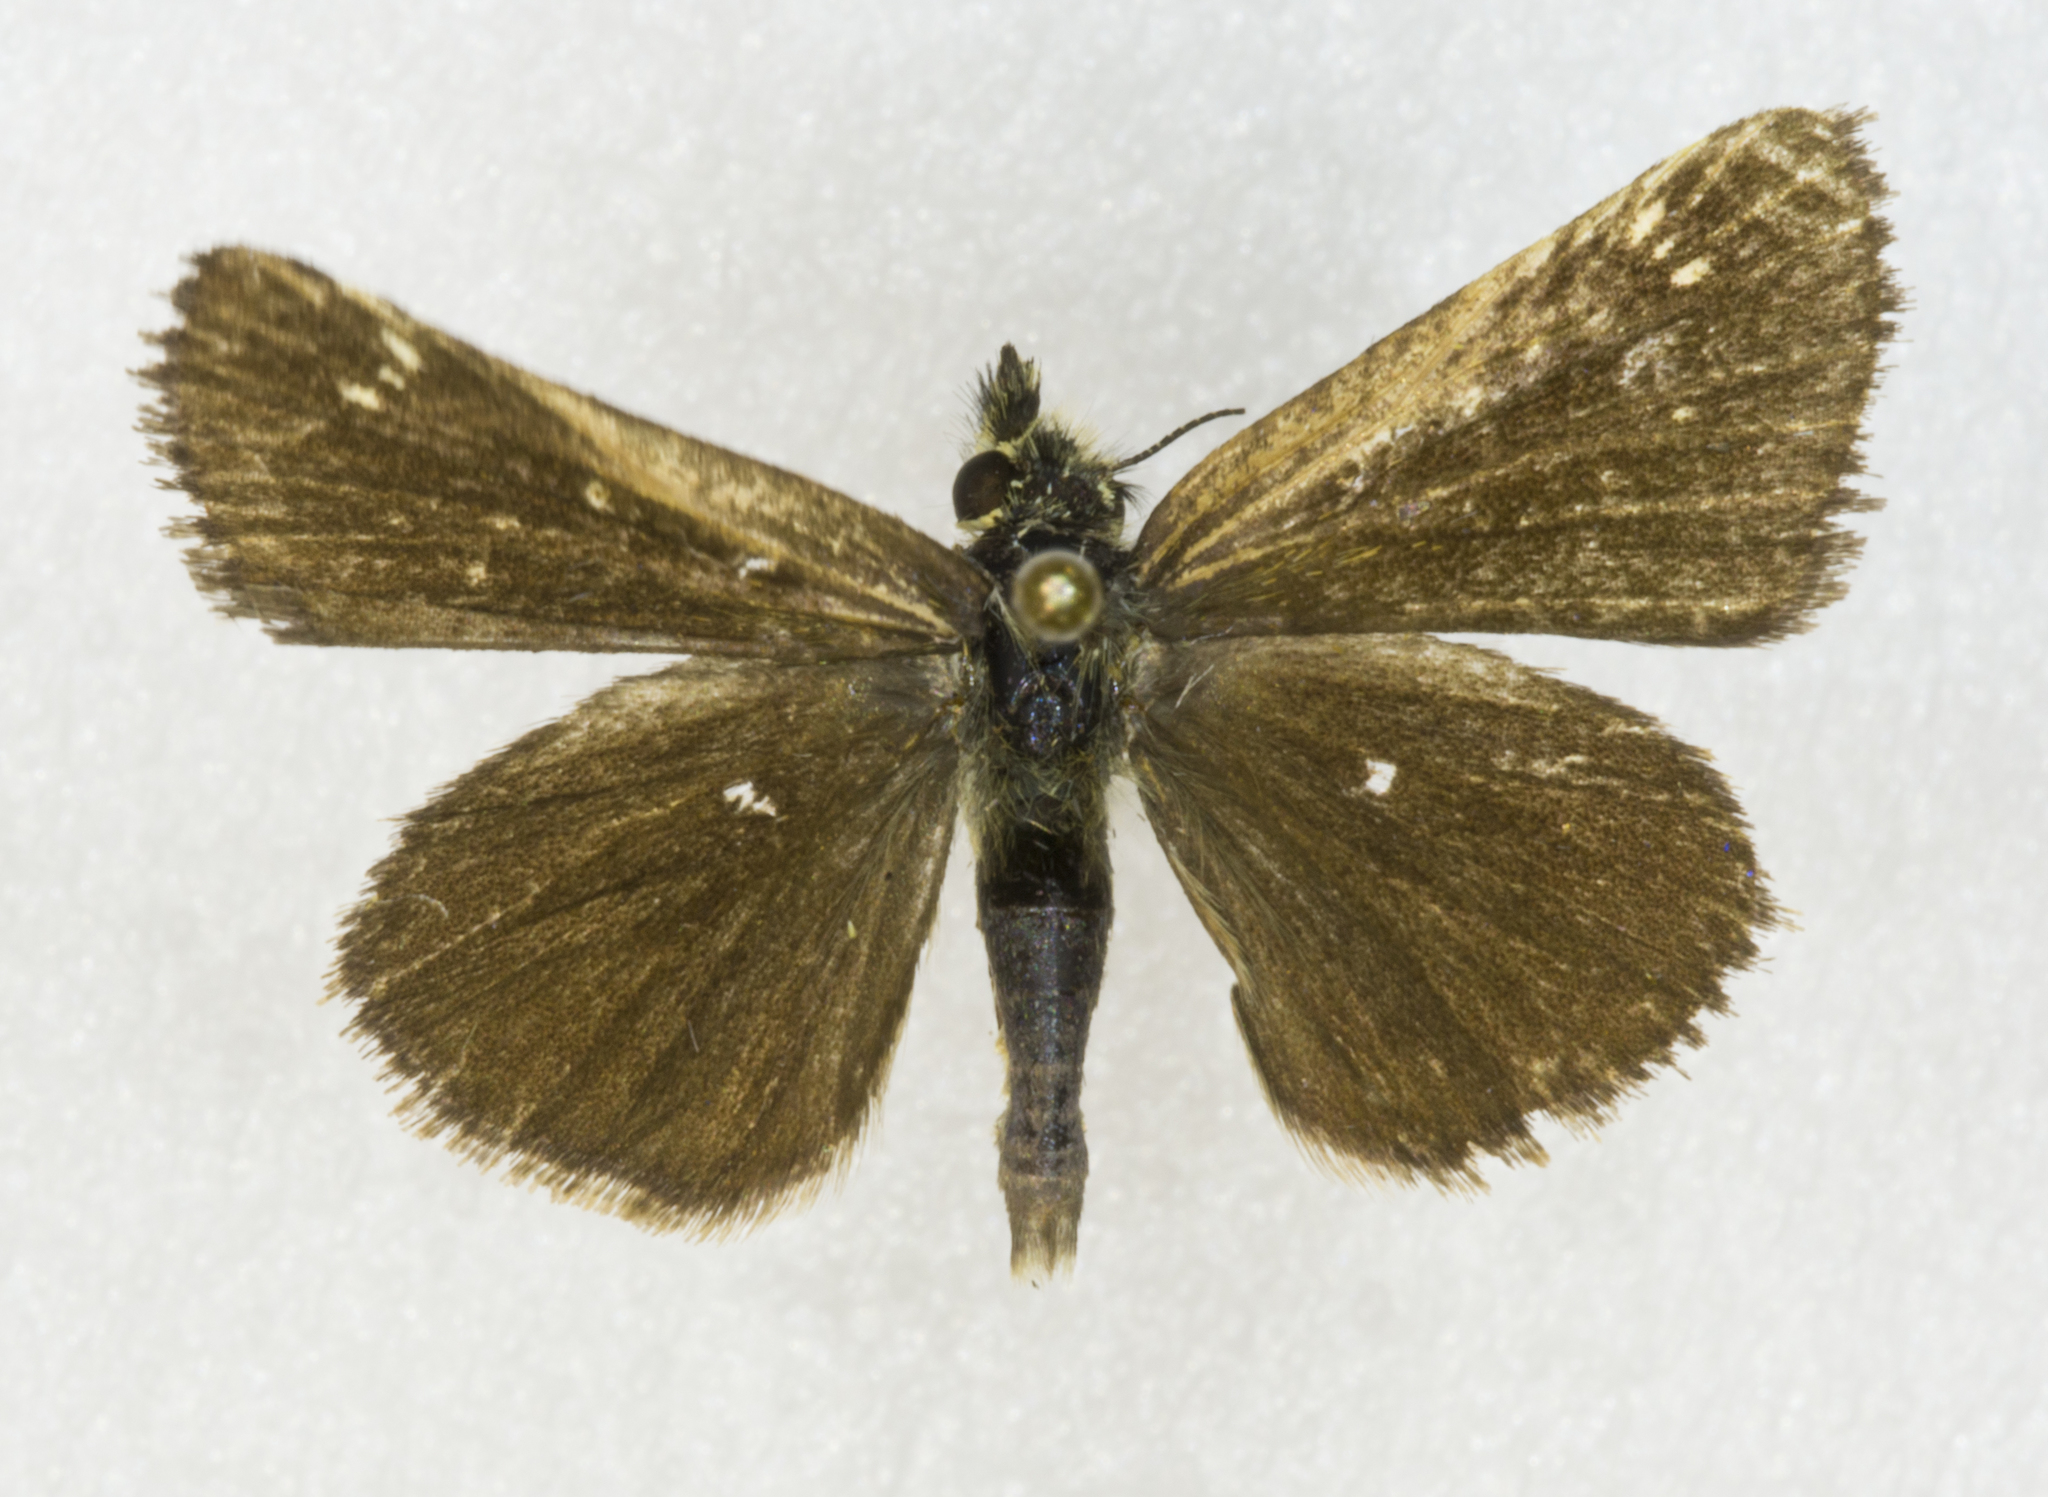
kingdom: Animalia
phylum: Arthropoda
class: Insecta
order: Lepidoptera
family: Hesperiidae
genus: Piruna
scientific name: Piruna pirus
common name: Russet skipperling
